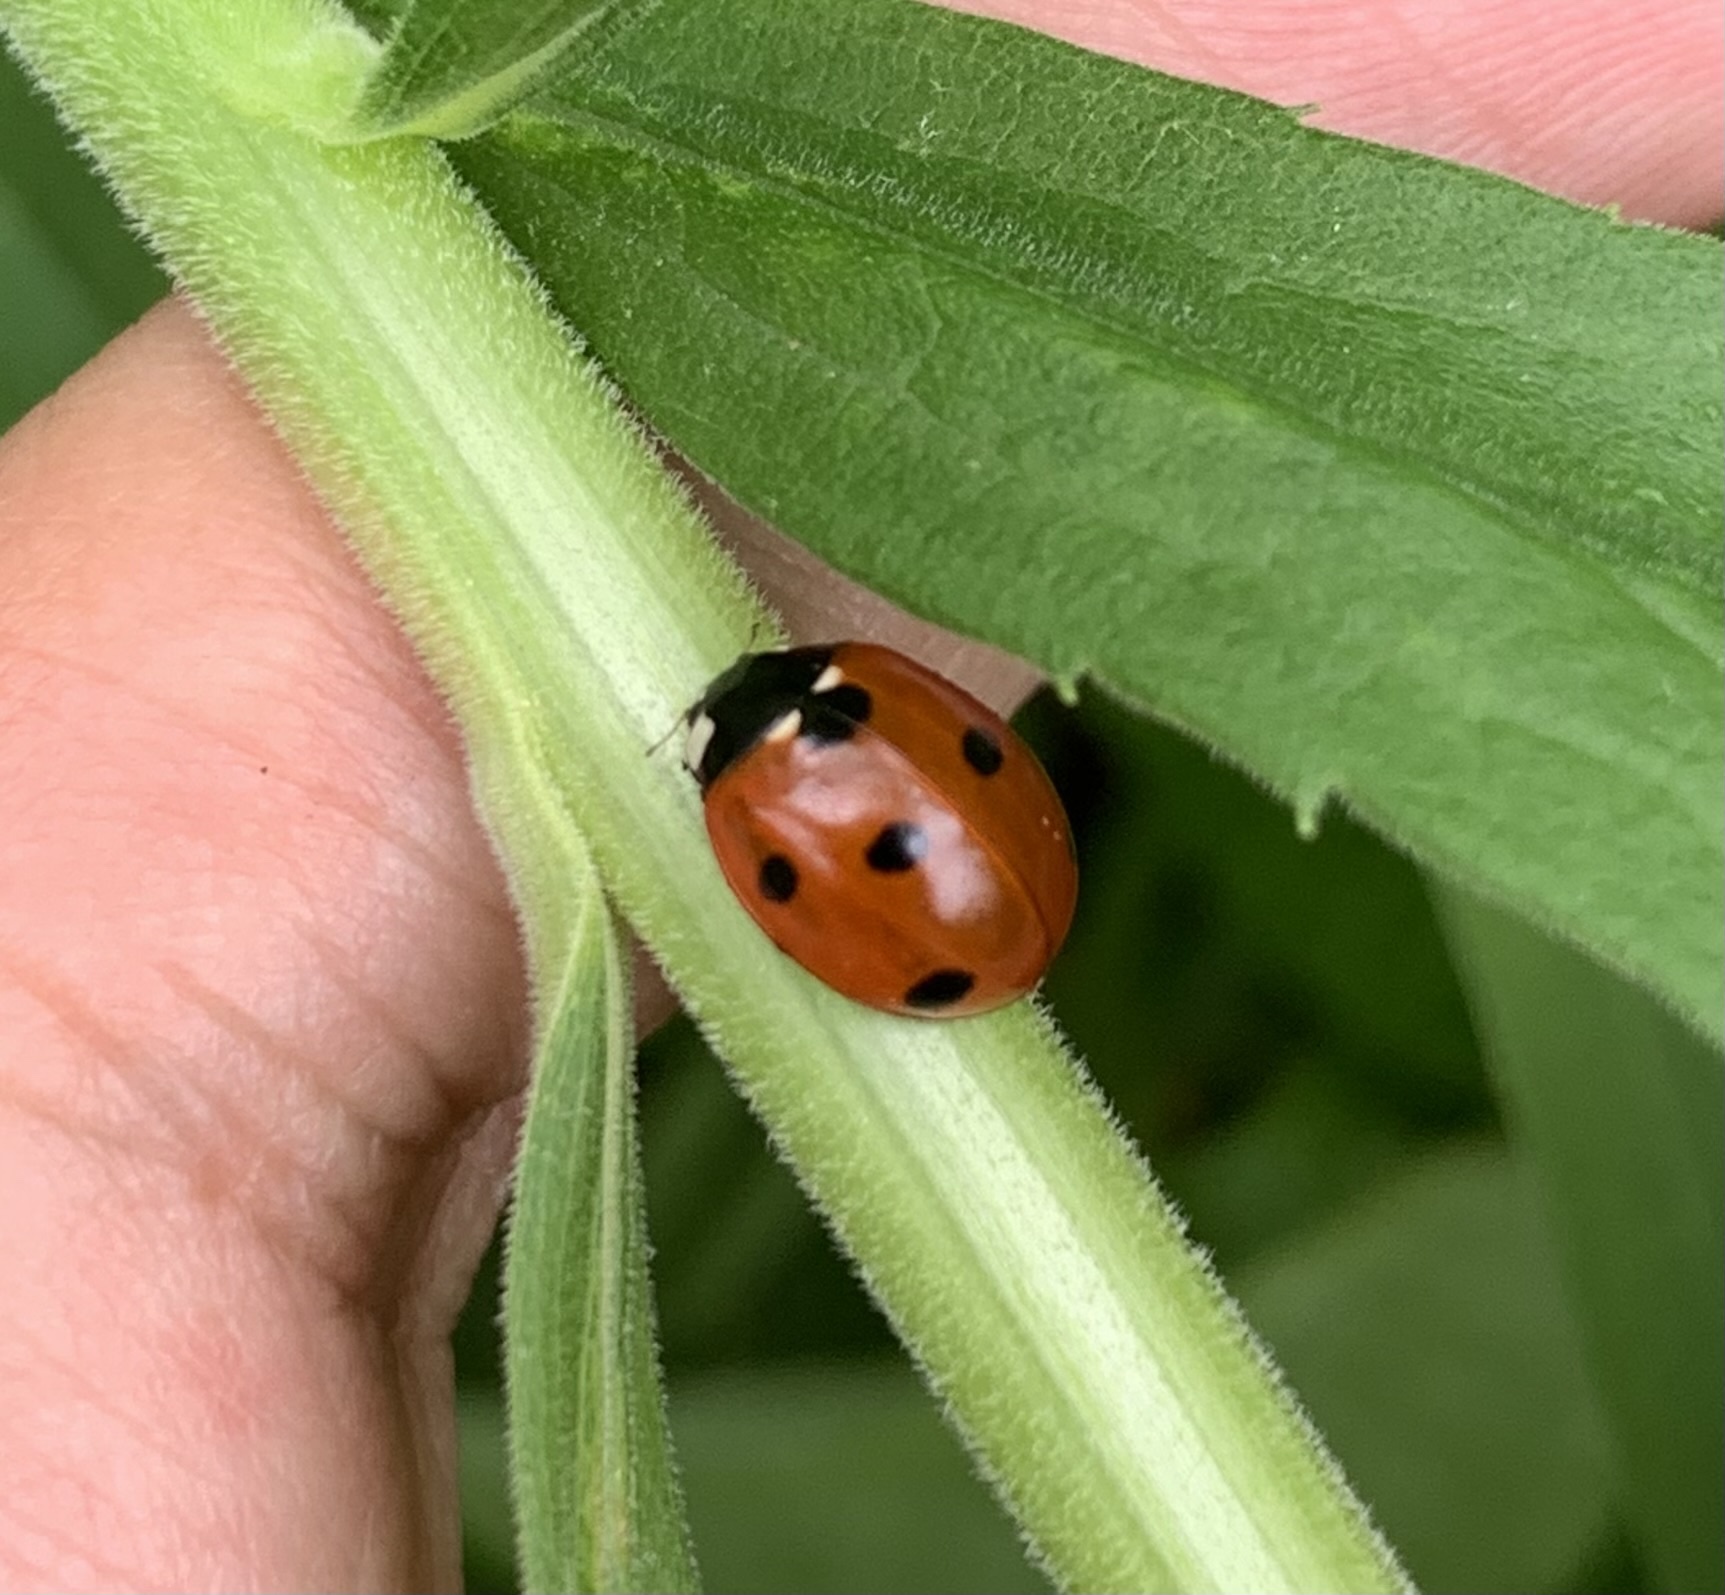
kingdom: Animalia
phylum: Arthropoda
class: Insecta
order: Coleoptera
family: Coccinellidae
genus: Coccinella
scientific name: Coccinella septempunctata
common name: Sevenspotted lady beetle
